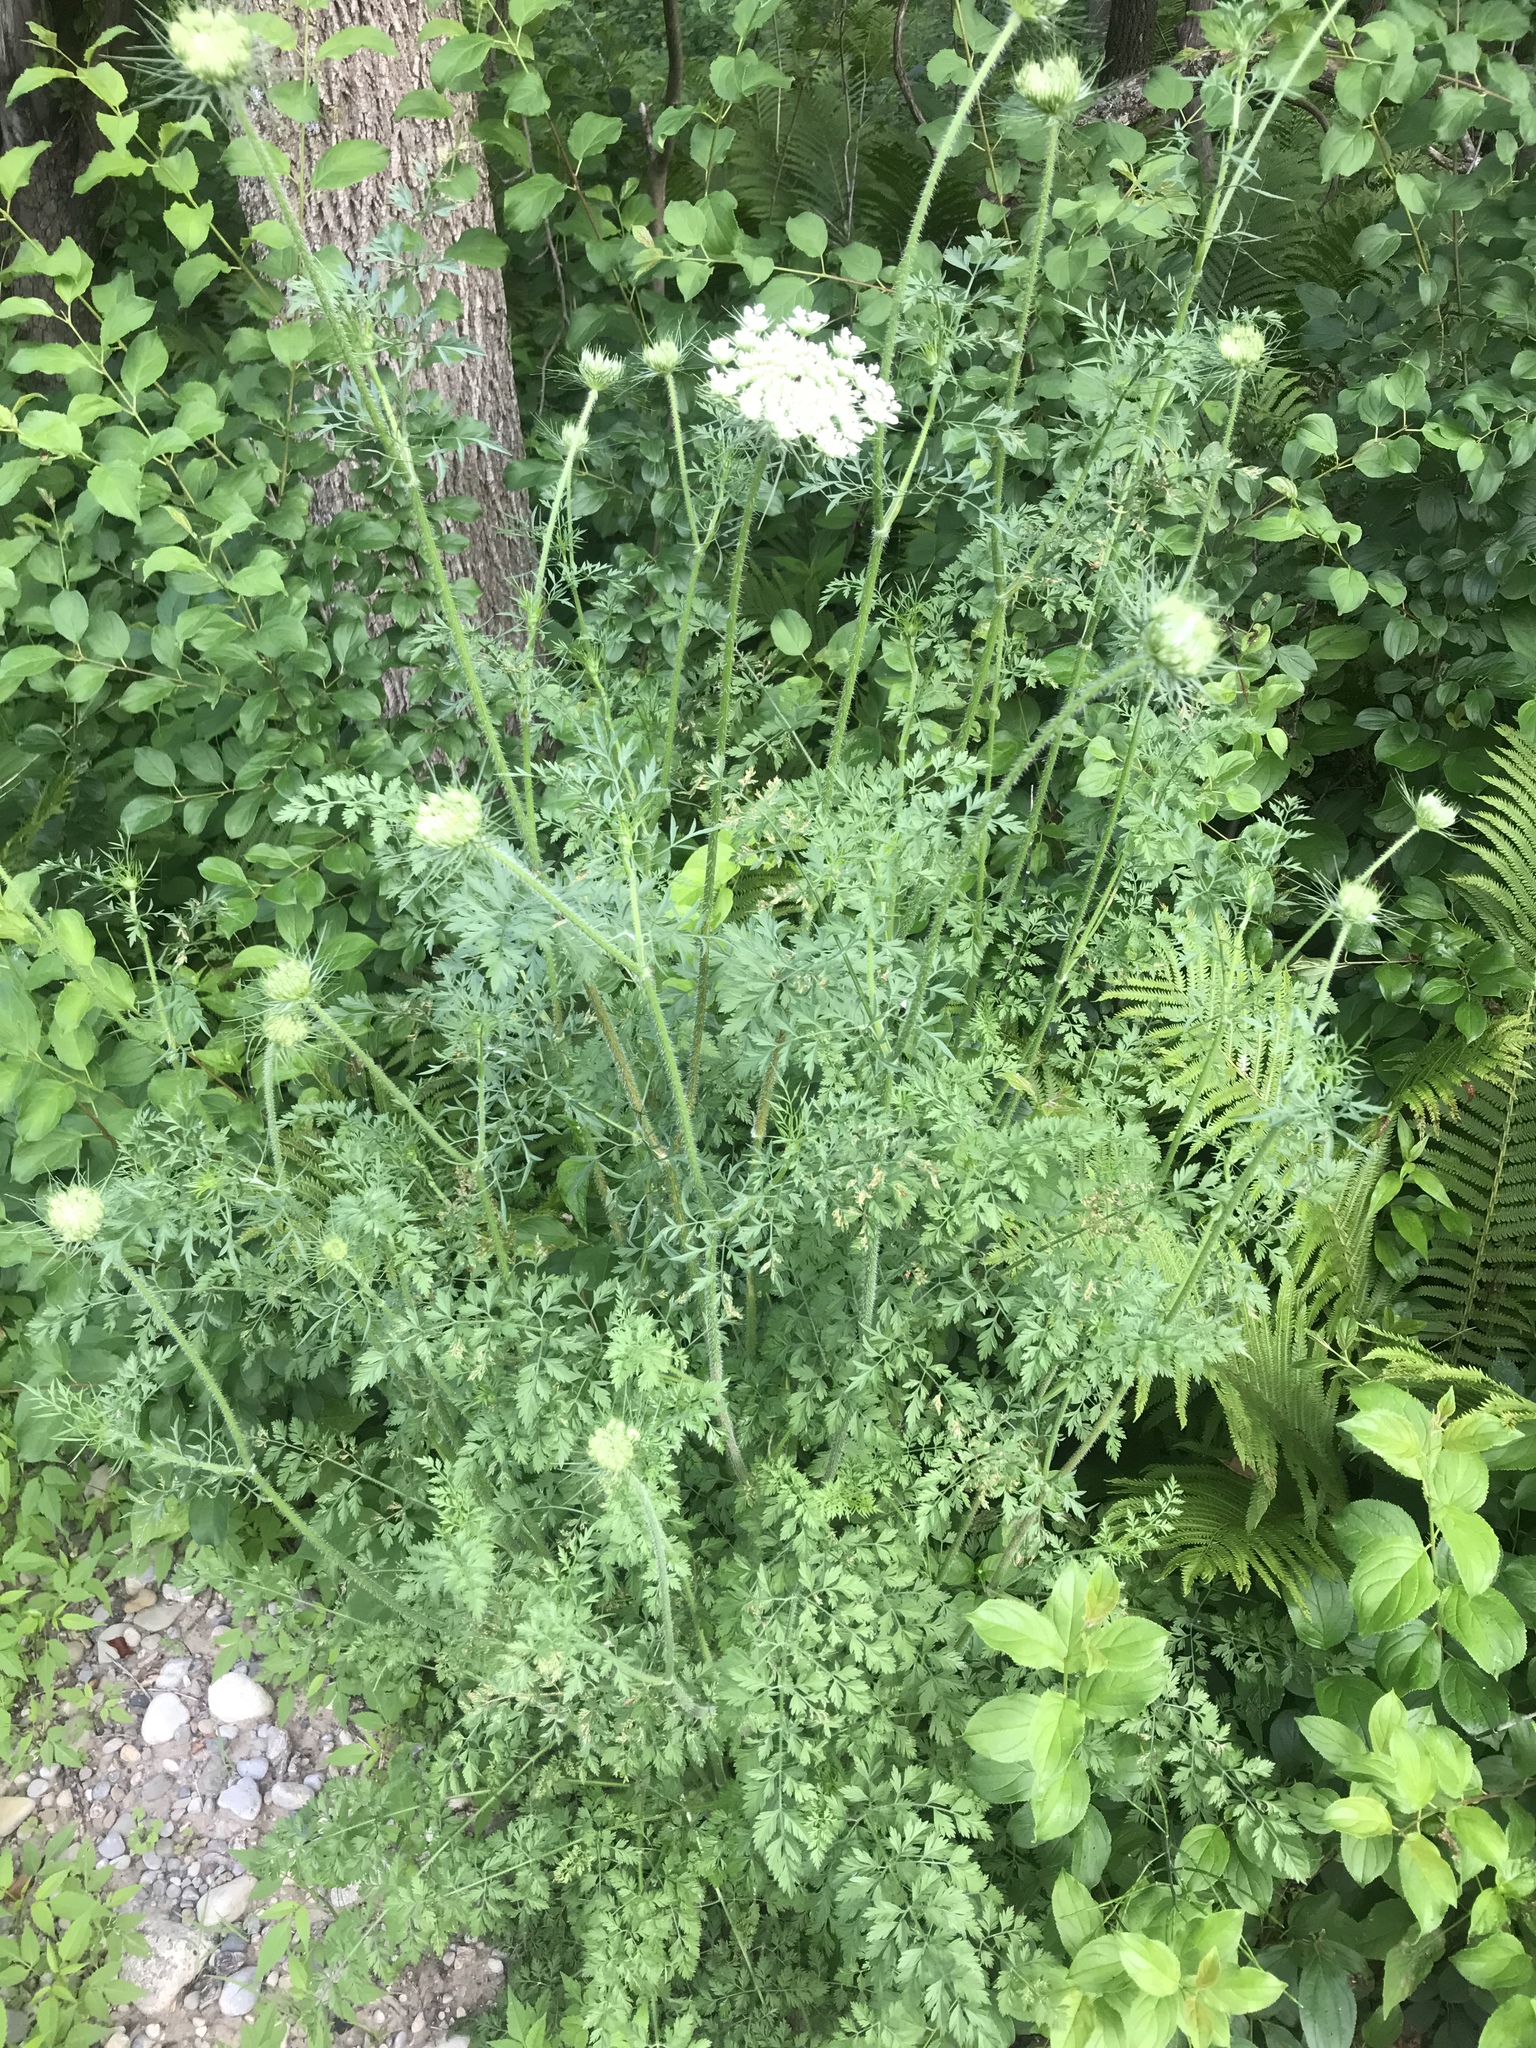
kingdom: Plantae
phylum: Tracheophyta
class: Magnoliopsida
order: Apiales
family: Apiaceae
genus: Daucus
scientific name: Daucus carota
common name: Wild carrot
